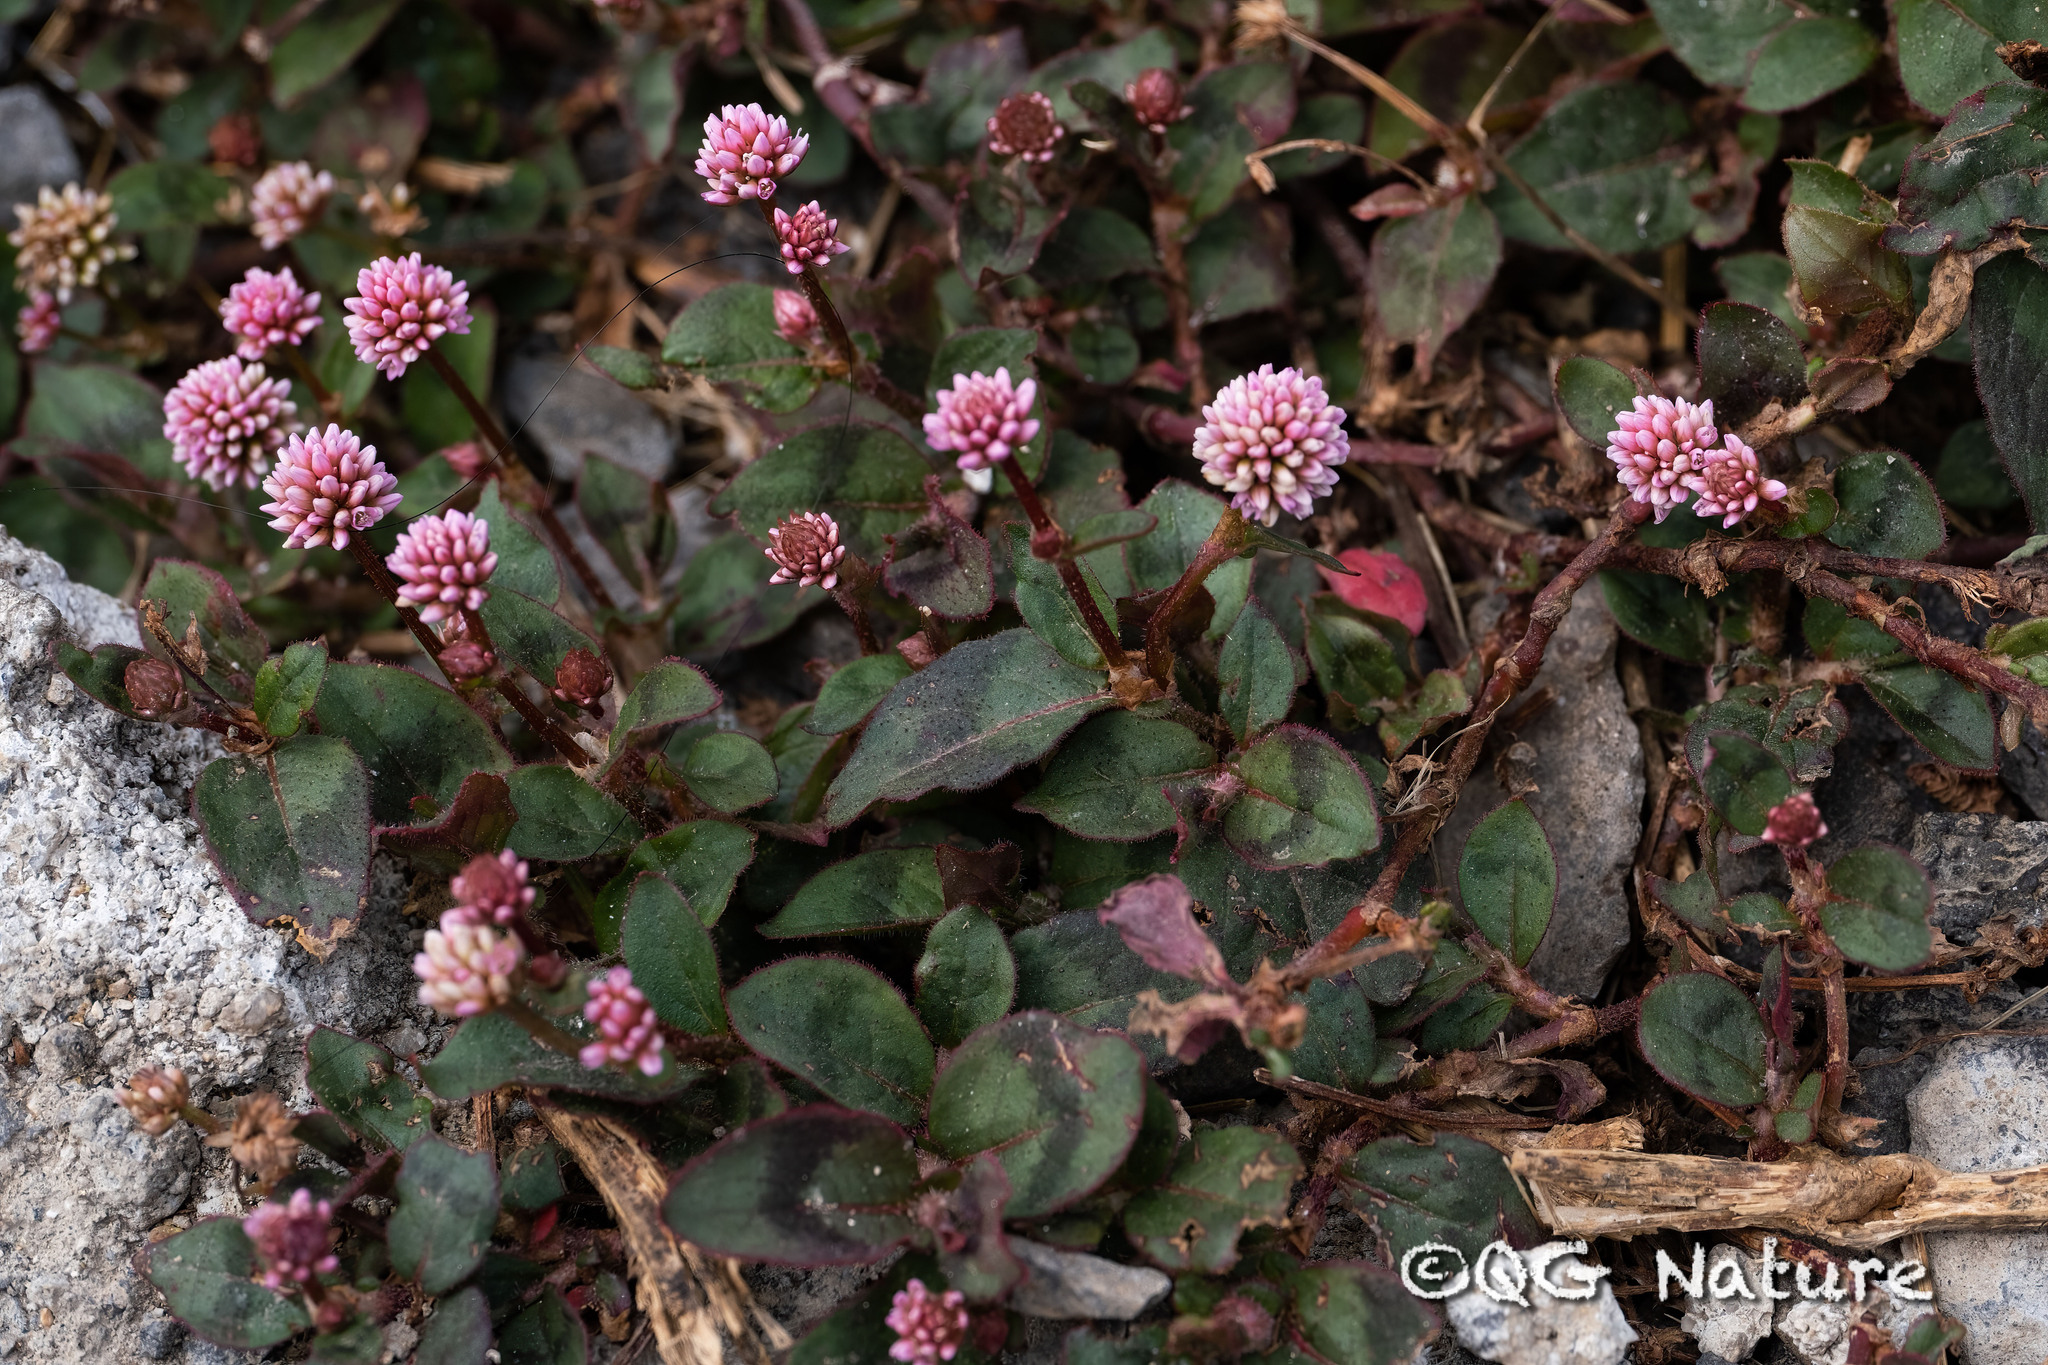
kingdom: Plantae
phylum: Tracheophyta
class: Magnoliopsida
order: Caryophyllales
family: Polygonaceae
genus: Persicaria
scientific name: Persicaria capitata
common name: Pinkhead smartweed
